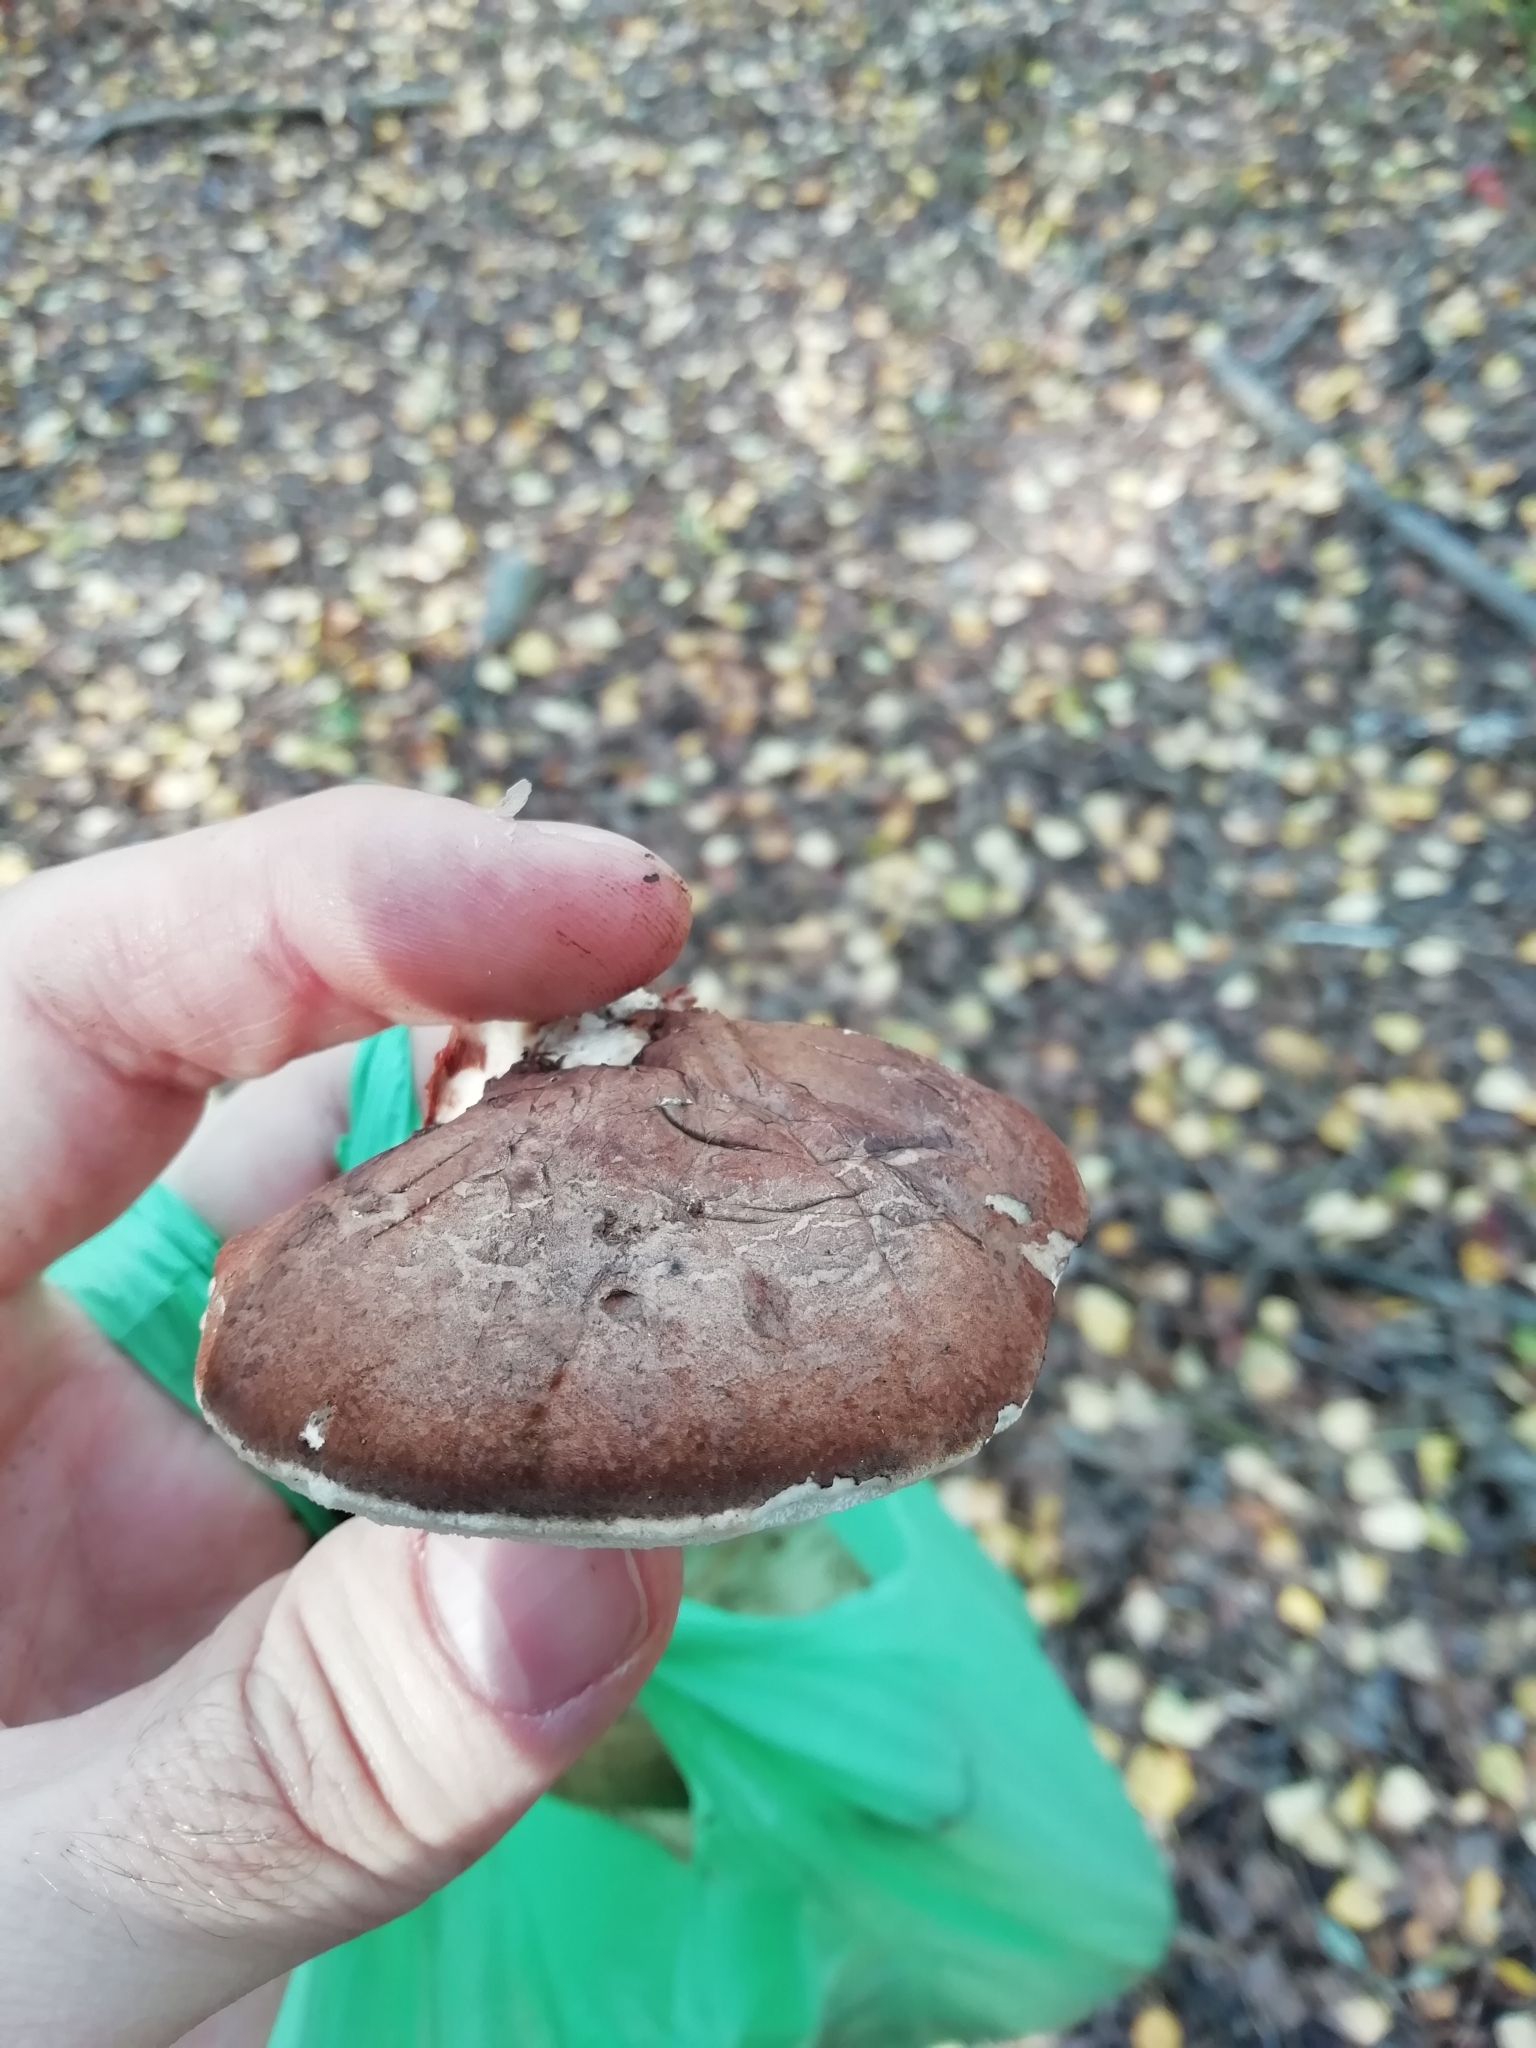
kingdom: Fungi
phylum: Basidiomycota
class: Agaricomycetes
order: Polyporales
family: Fomitopsidaceae
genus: Fomitopsis
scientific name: Fomitopsis betulina
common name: Birch polypore
